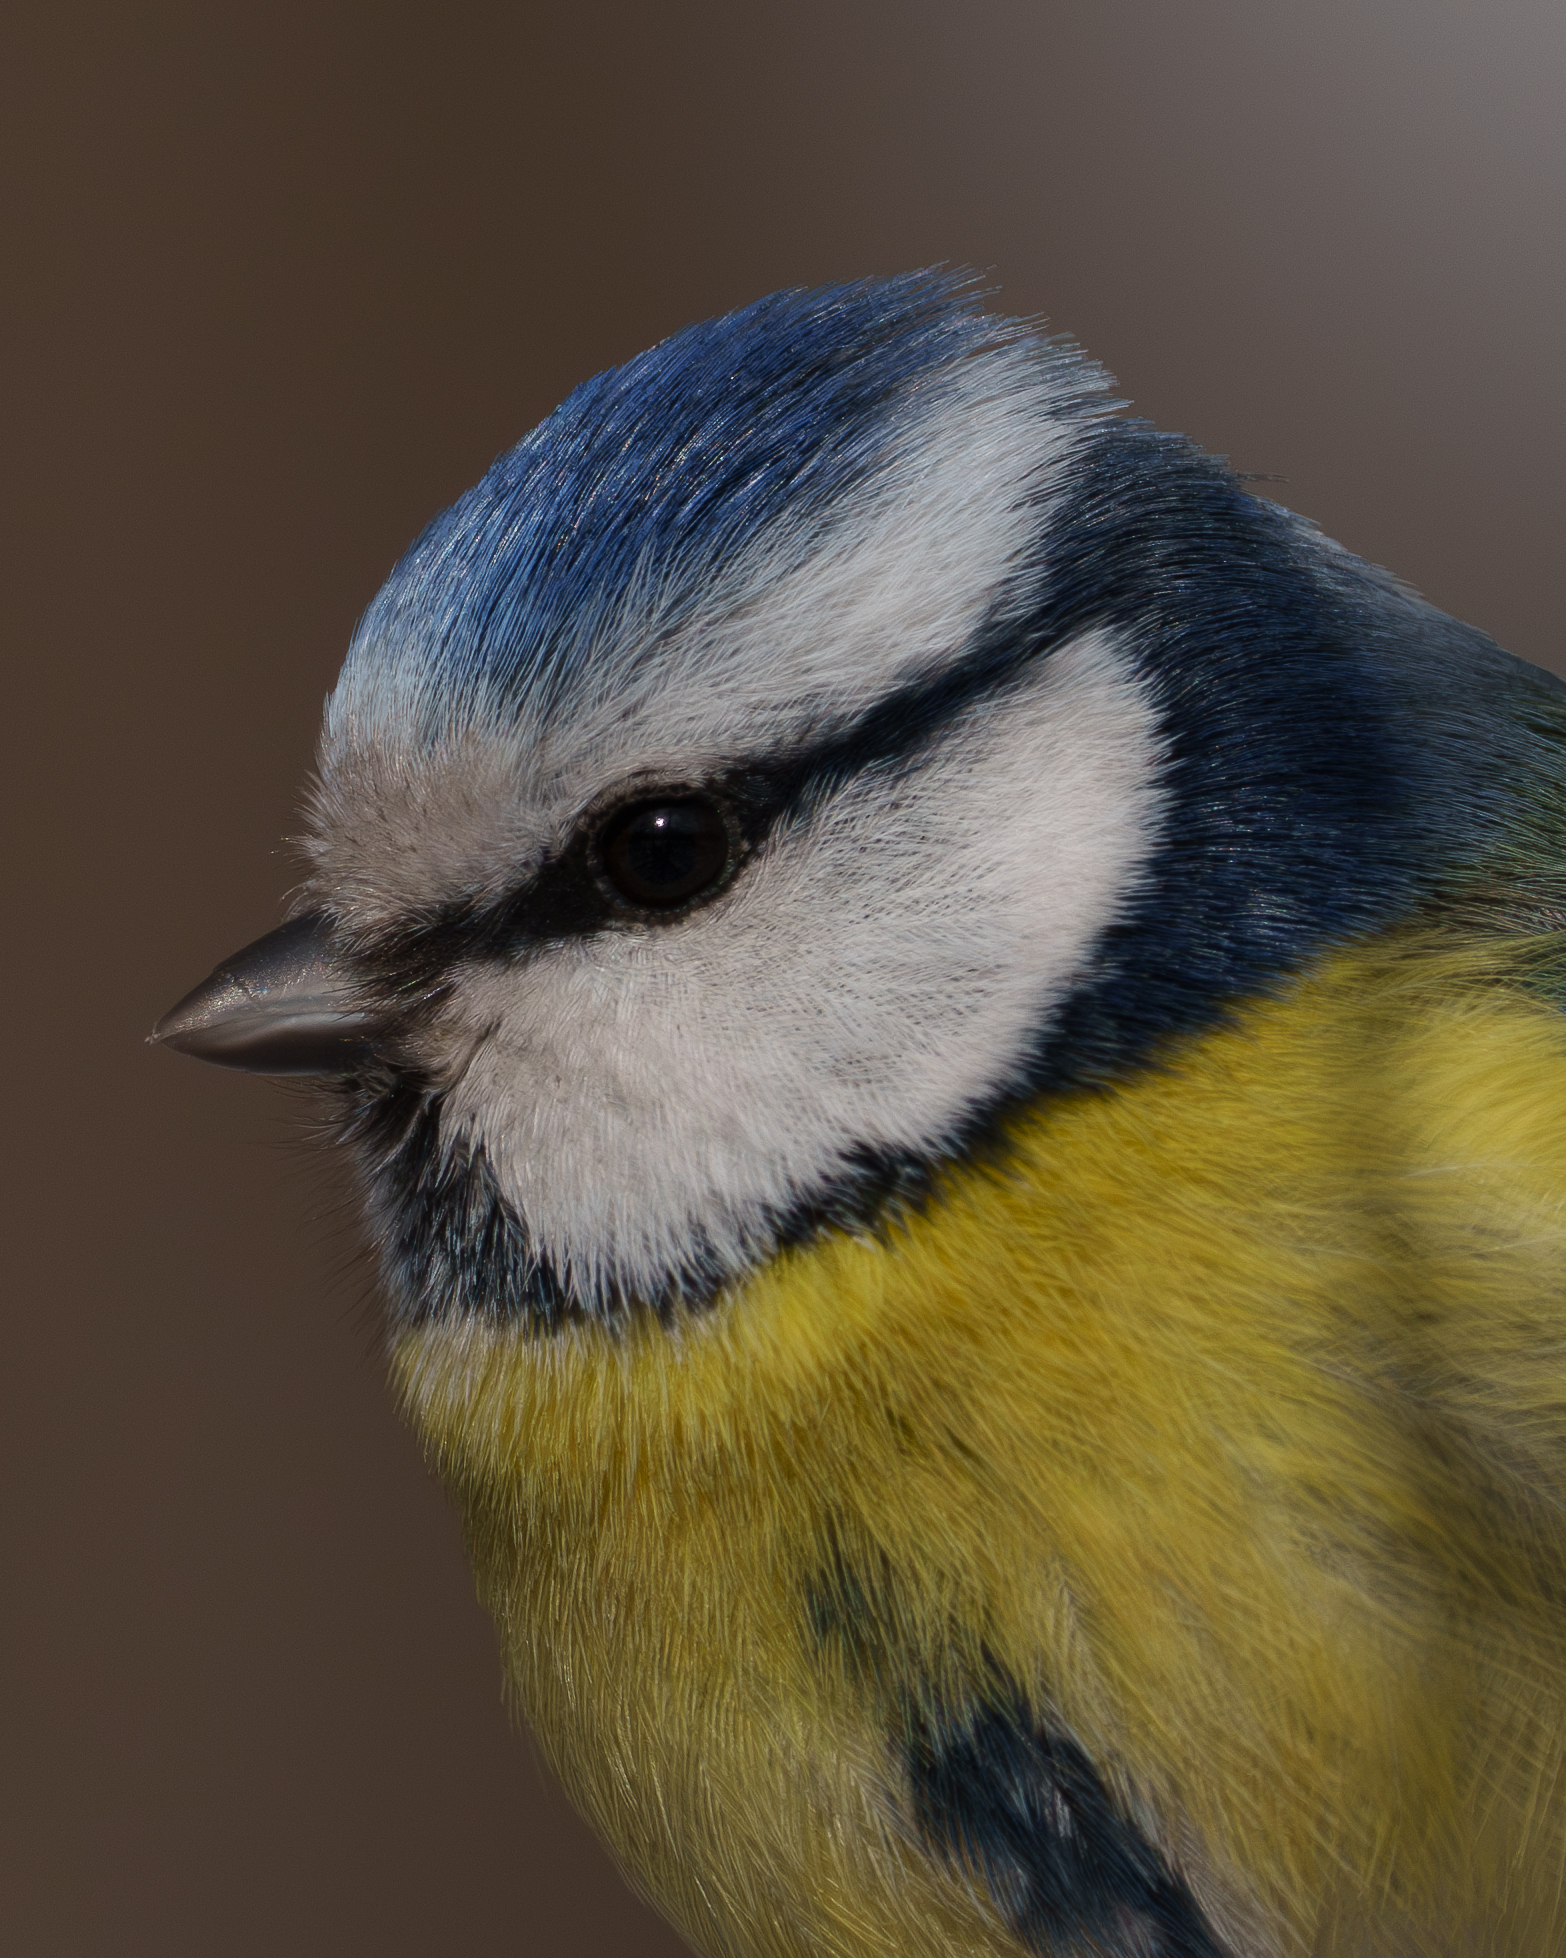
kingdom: Animalia
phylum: Chordata
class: Aves
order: Passeriformes
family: Paridae
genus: Cyanistes
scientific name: Cyanistes caeruleus
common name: Eurasian blue tit
